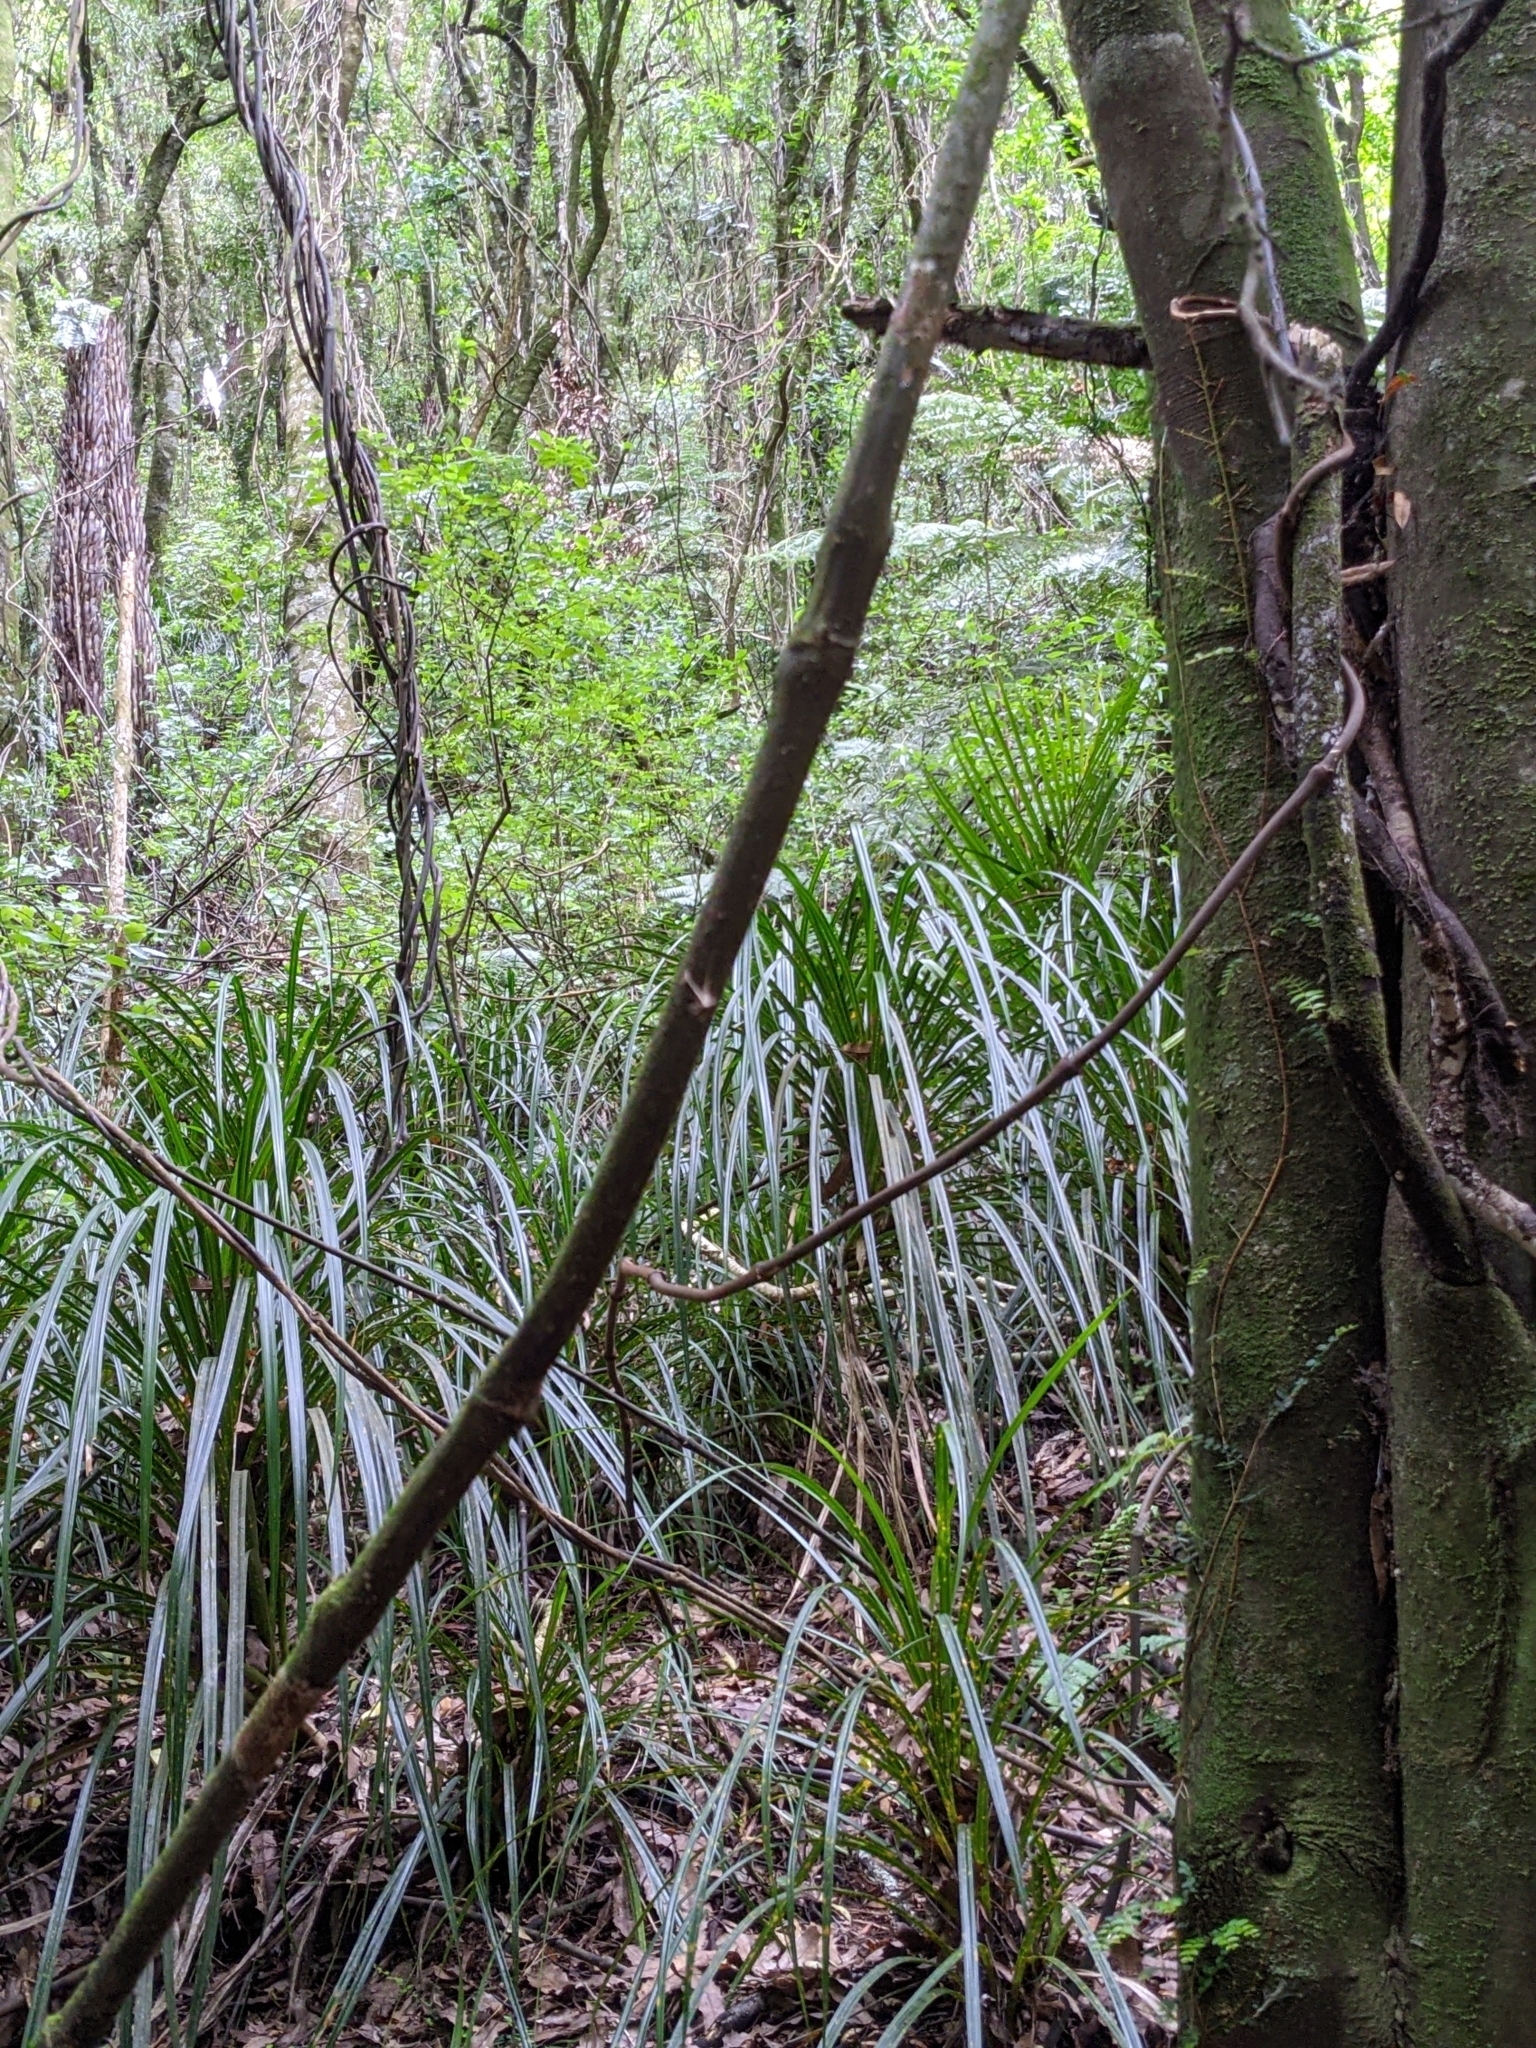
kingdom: Animalia
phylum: Chordata
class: Aves
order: Passeriformes
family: Acanthisittidae
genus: Acanthisitta
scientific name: Acanthisitta chloris
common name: Rifleman
